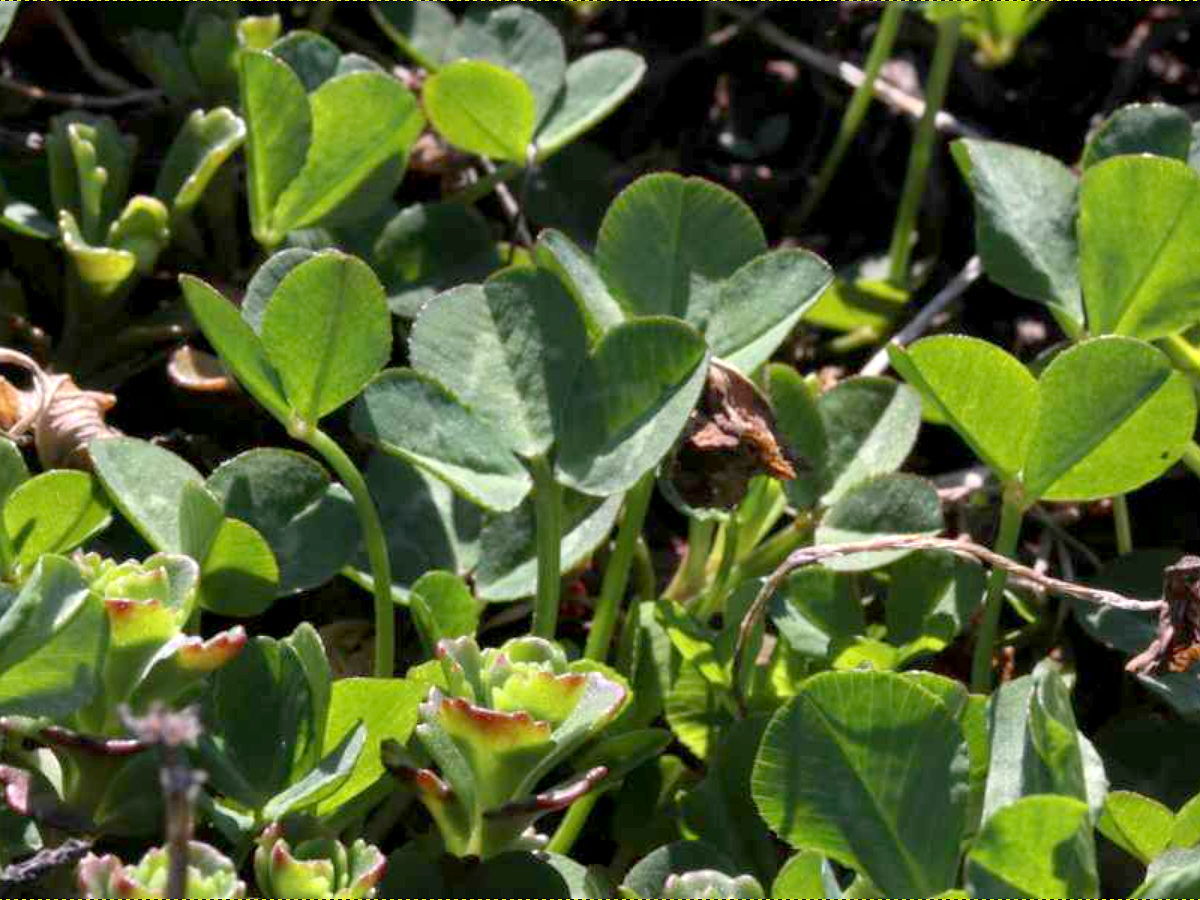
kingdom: Plantae
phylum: Tracheophyta
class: Magnoliopsida
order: Fabales
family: Fabaceae
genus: Trifolium
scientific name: Trifolium repens
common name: White clover
